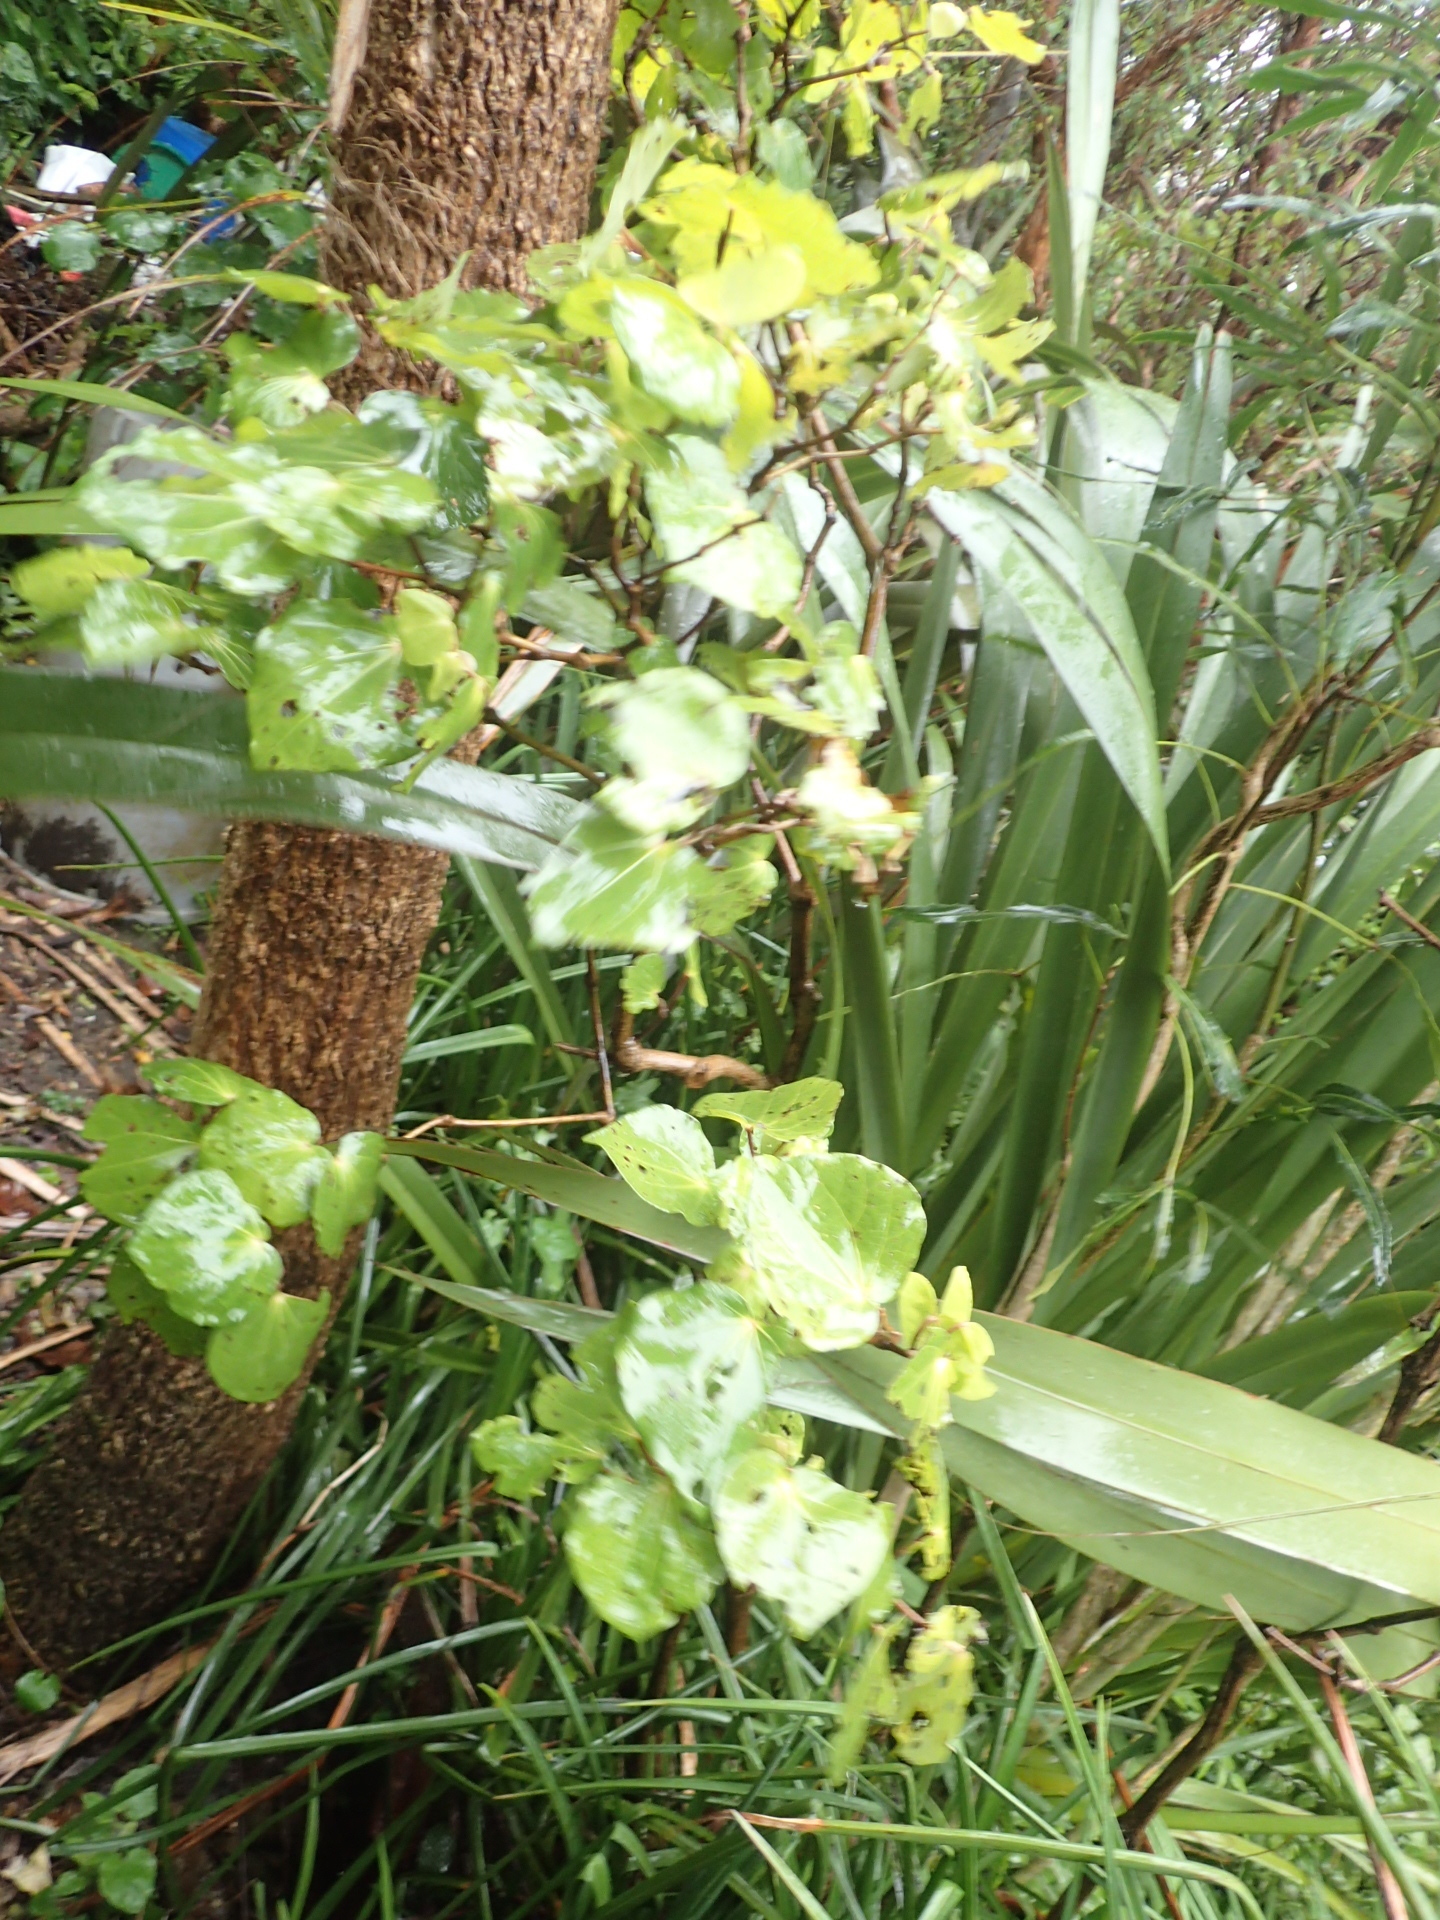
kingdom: Plantae
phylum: Tracheophyta
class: Magnoliopsida
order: Piperales
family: Piperaceae
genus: Macropiper
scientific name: Macropiper excelsum
